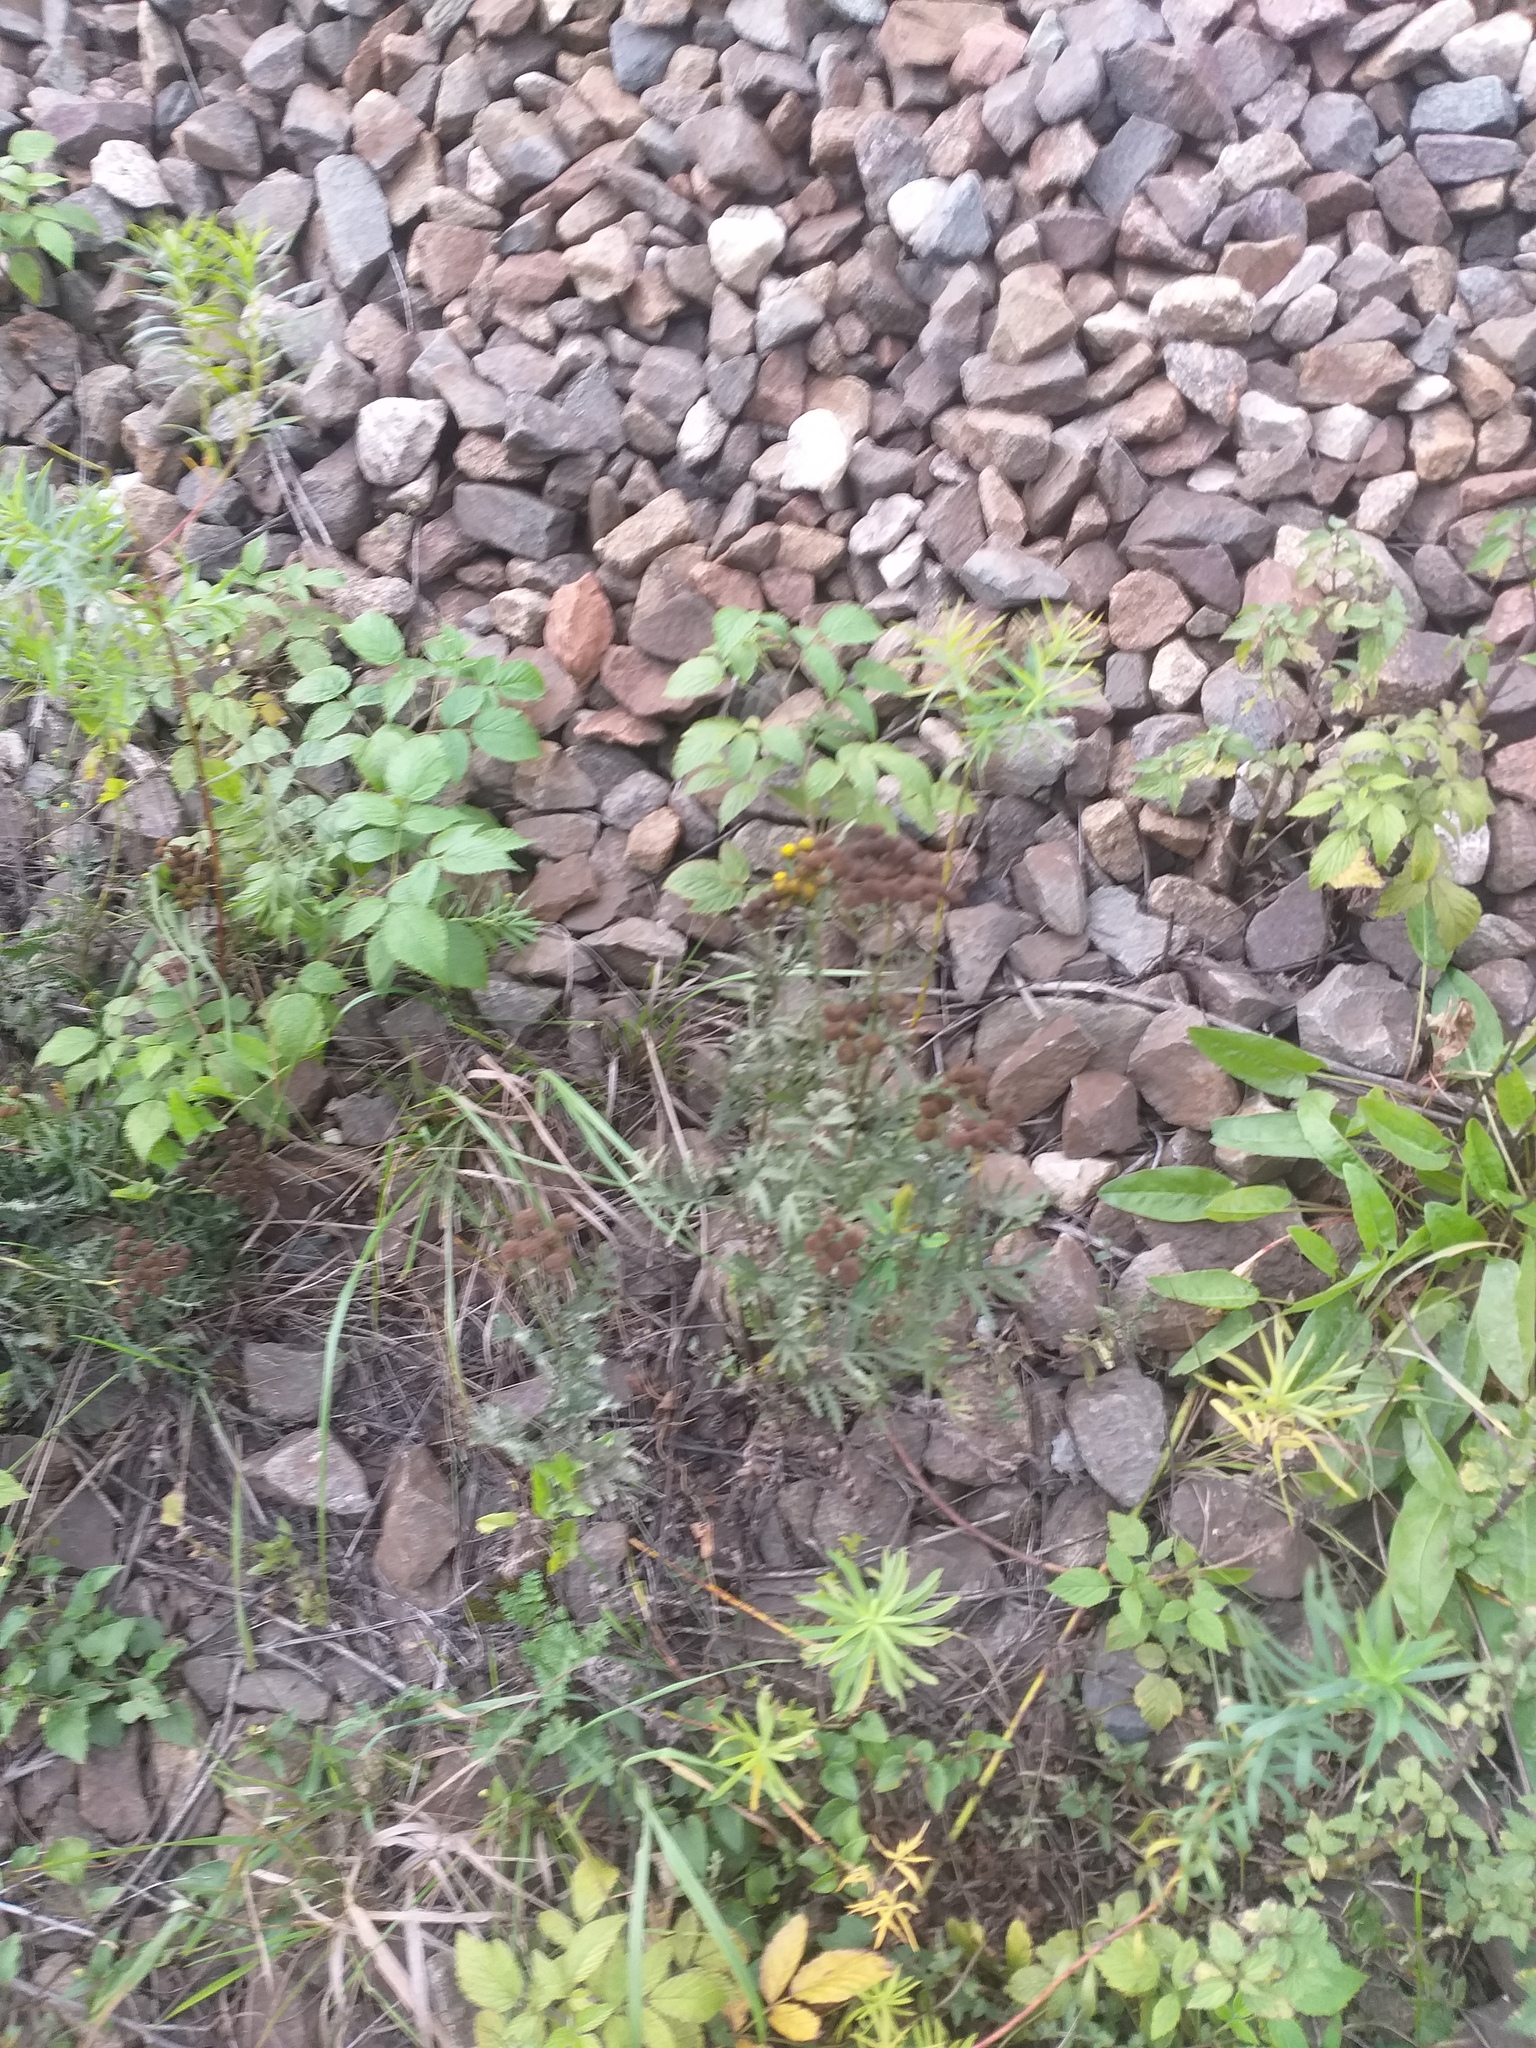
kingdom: Plantae
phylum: Tracheophyta
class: Magnoliopsida
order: Asterales
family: Asteraceae
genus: Tanacetum
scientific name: Tanacetum vulgare
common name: Common tansy
